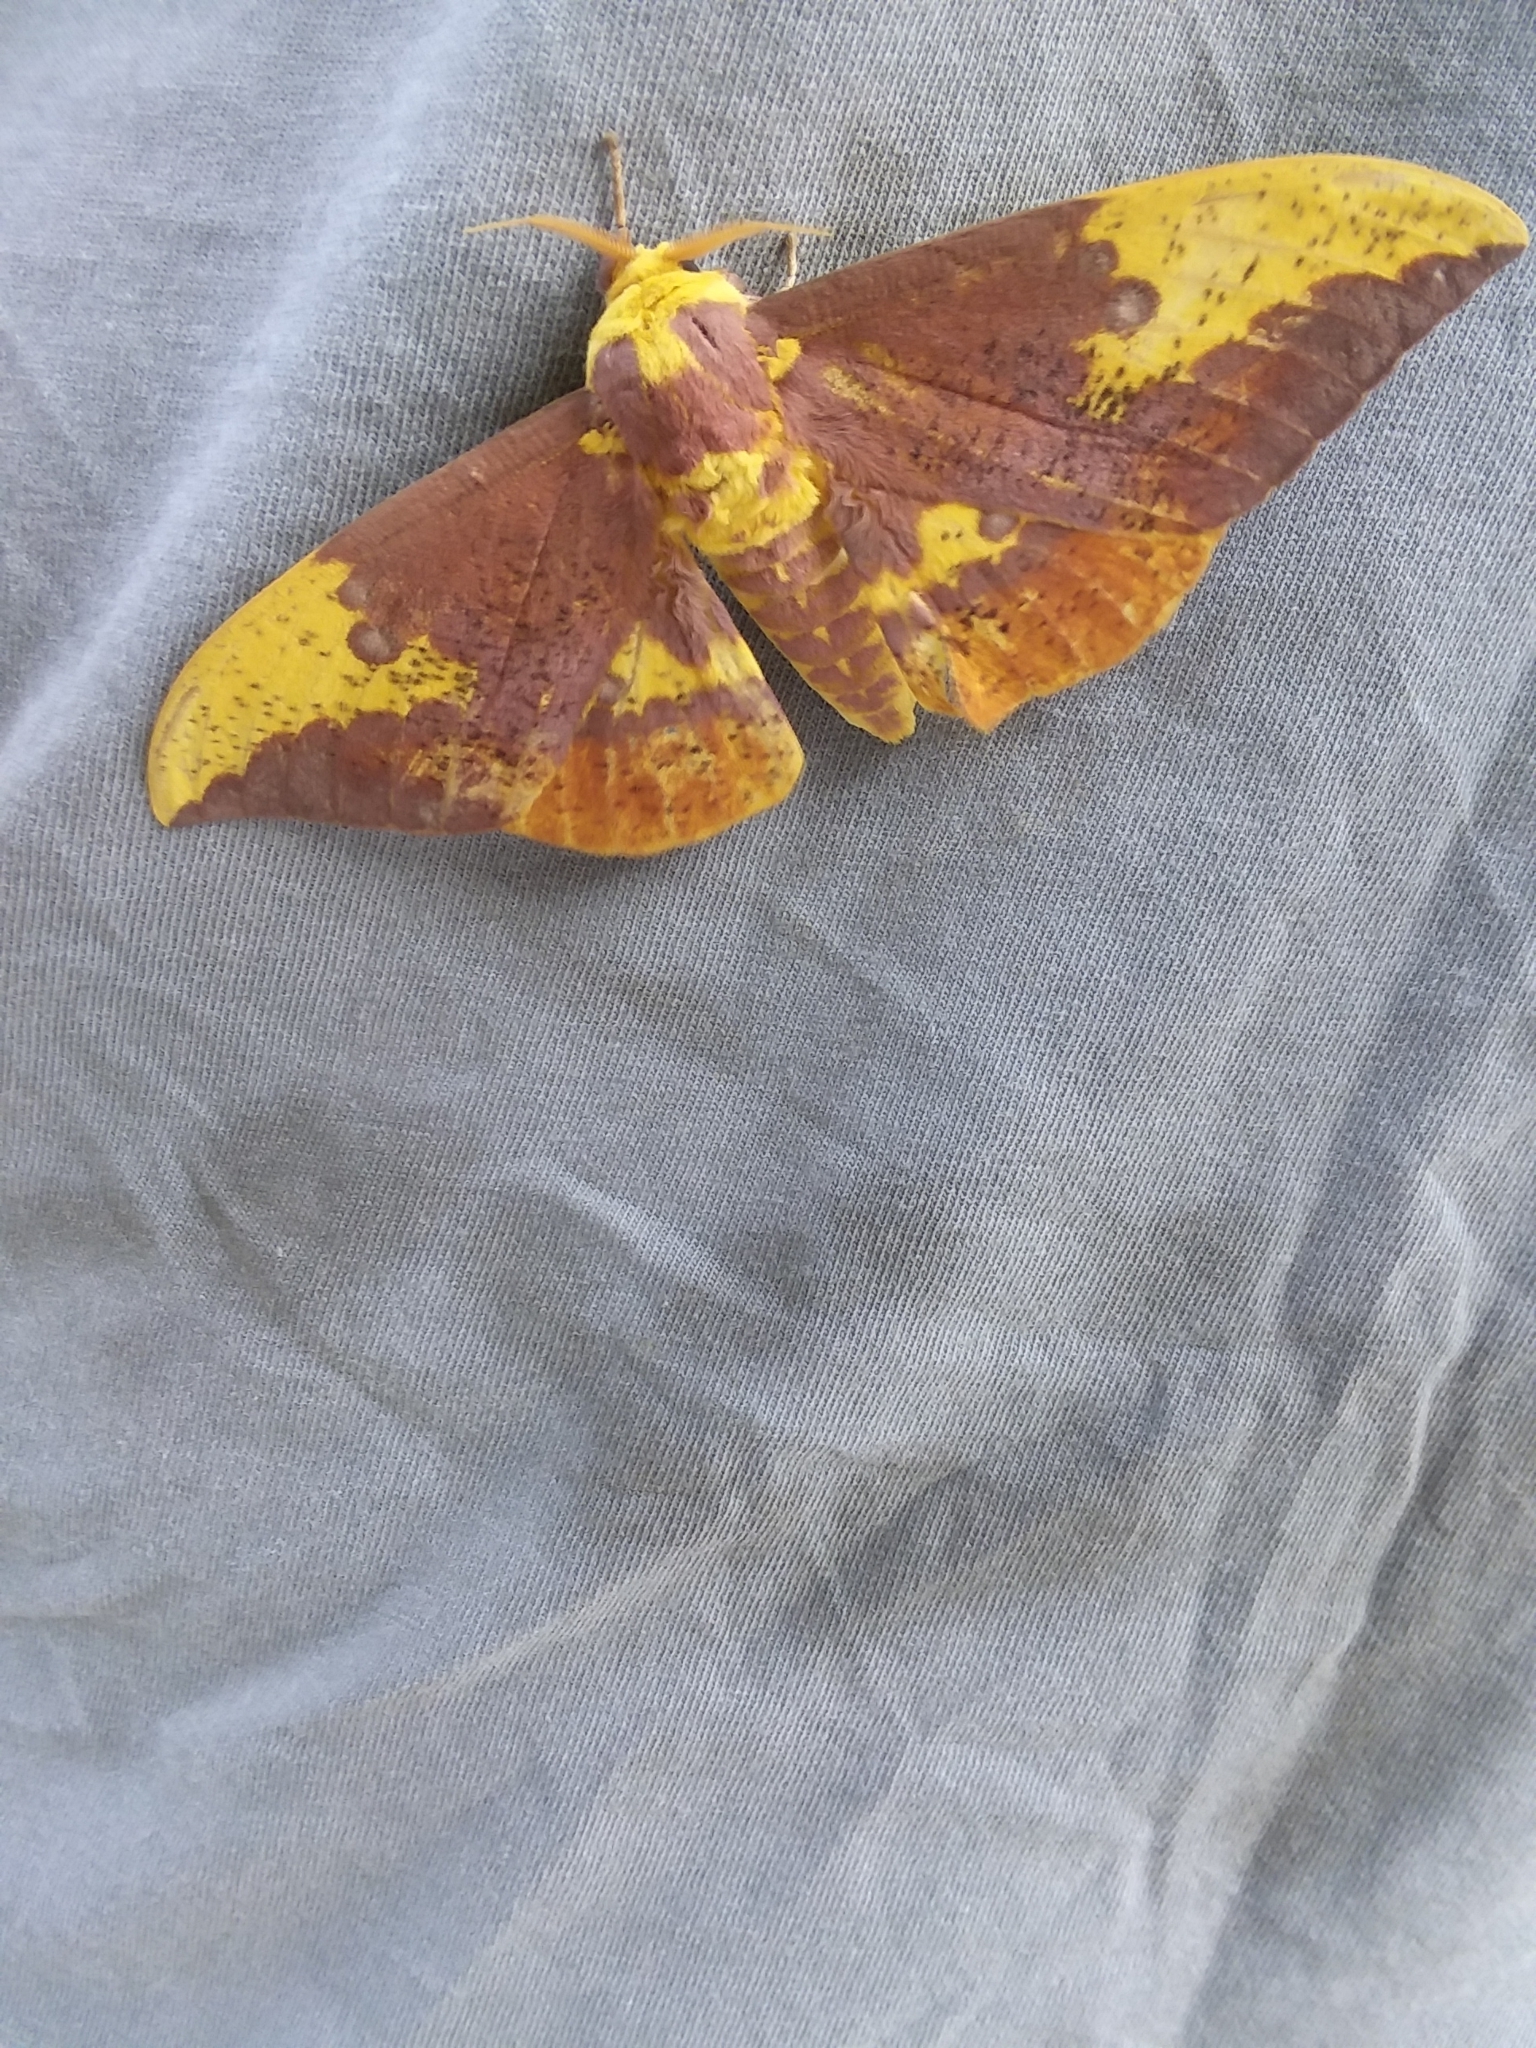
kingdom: Animalia
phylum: Arthropoda
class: Insecta
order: Lepidoptera
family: Saturniidae
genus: Eacles
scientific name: Eacles imperialis
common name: Imperial moth
